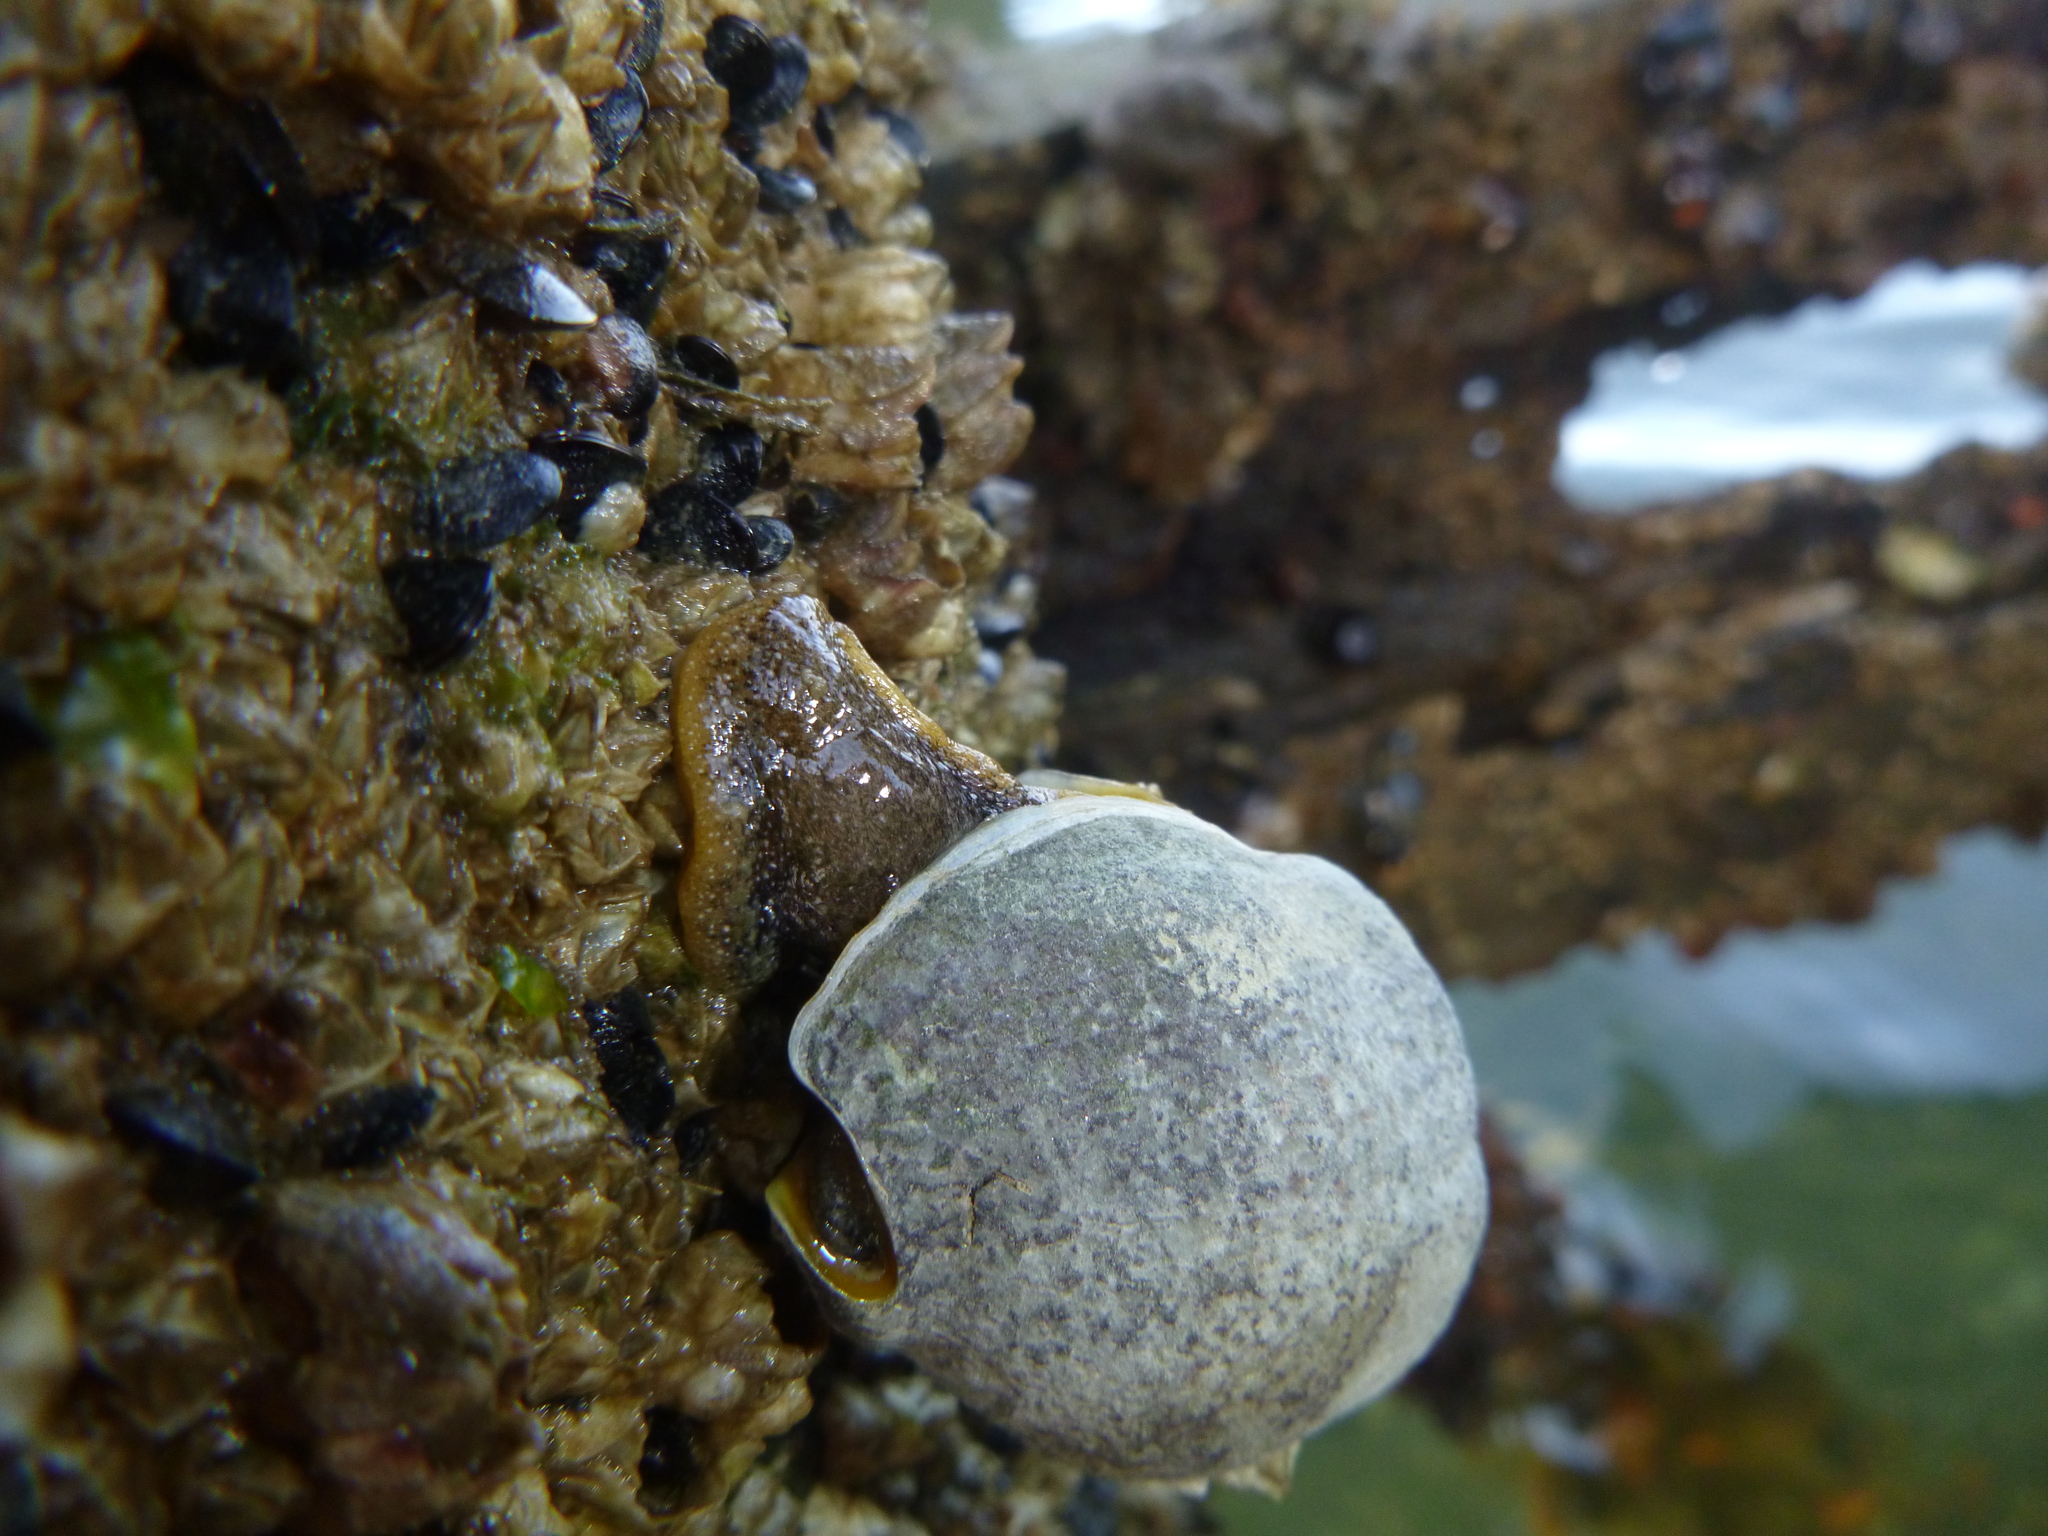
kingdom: Animalia
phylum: Mollusca
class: Gastropoda
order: Neogastropoda
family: Cominellidae
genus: Cominella
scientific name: Cominella adspersa
